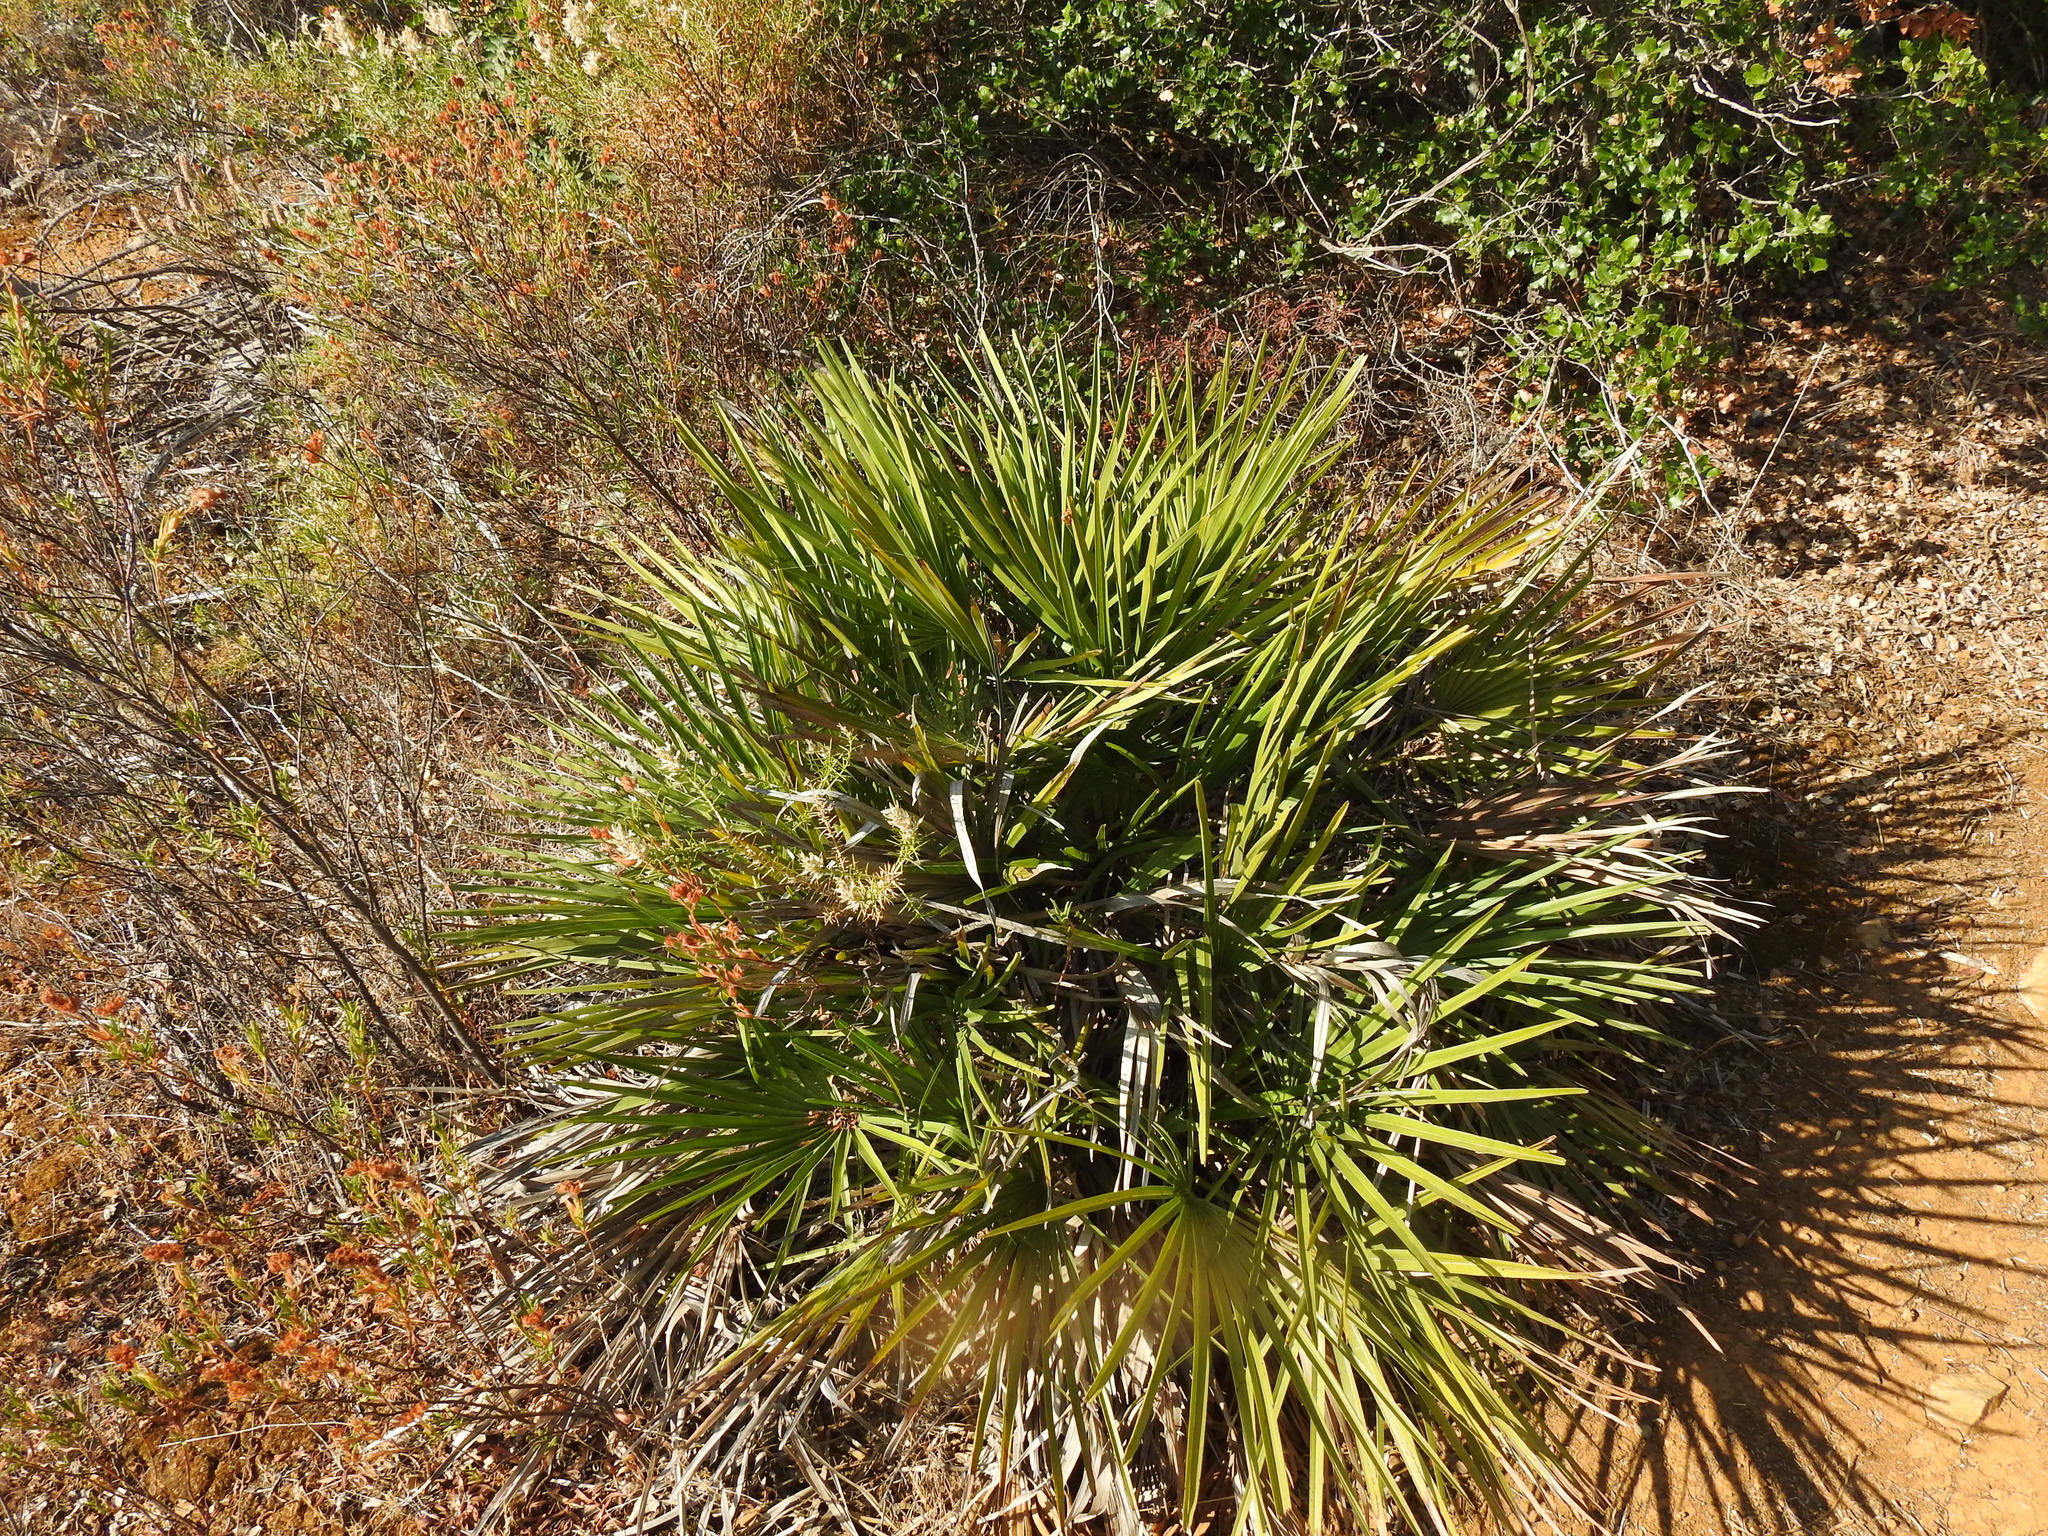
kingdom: Plantae
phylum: Tracheophyta
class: Liliopsida
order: Arecales
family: Arecaceae
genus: Chamaerops
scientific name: Chamaerops humilis
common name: Dwarf fan palm
